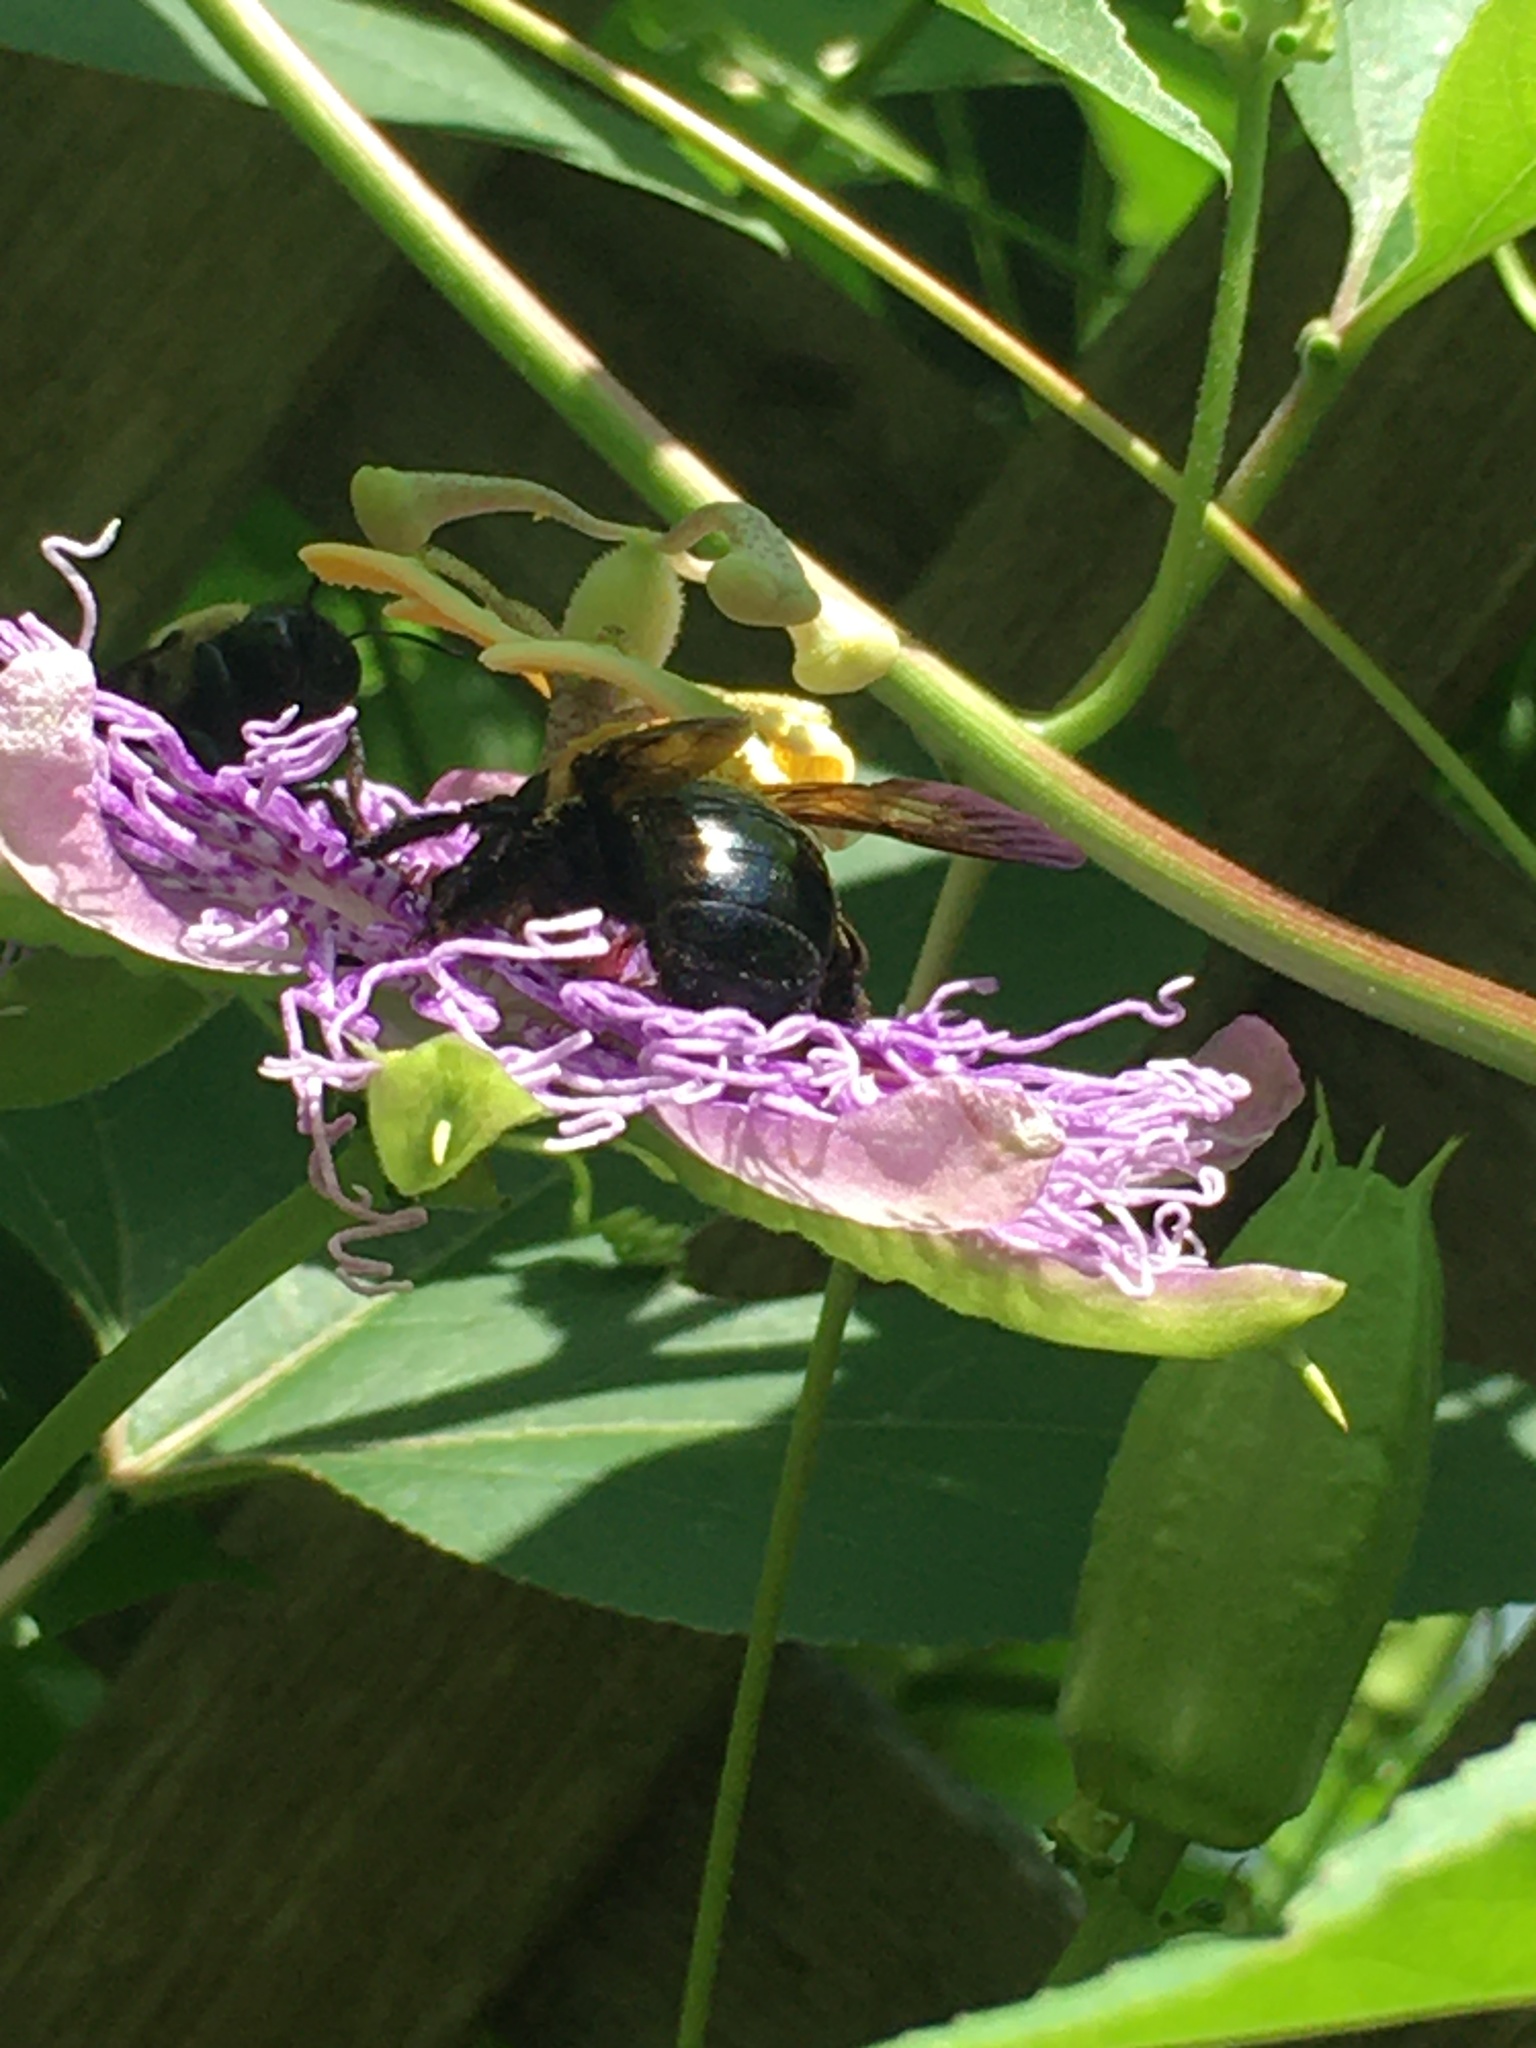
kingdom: Animalia
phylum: Arthropoda
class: Insecta
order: Hymenoptera
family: Apidae
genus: Xylocopa
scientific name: Xylocopa virginica
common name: Carpenter bee
